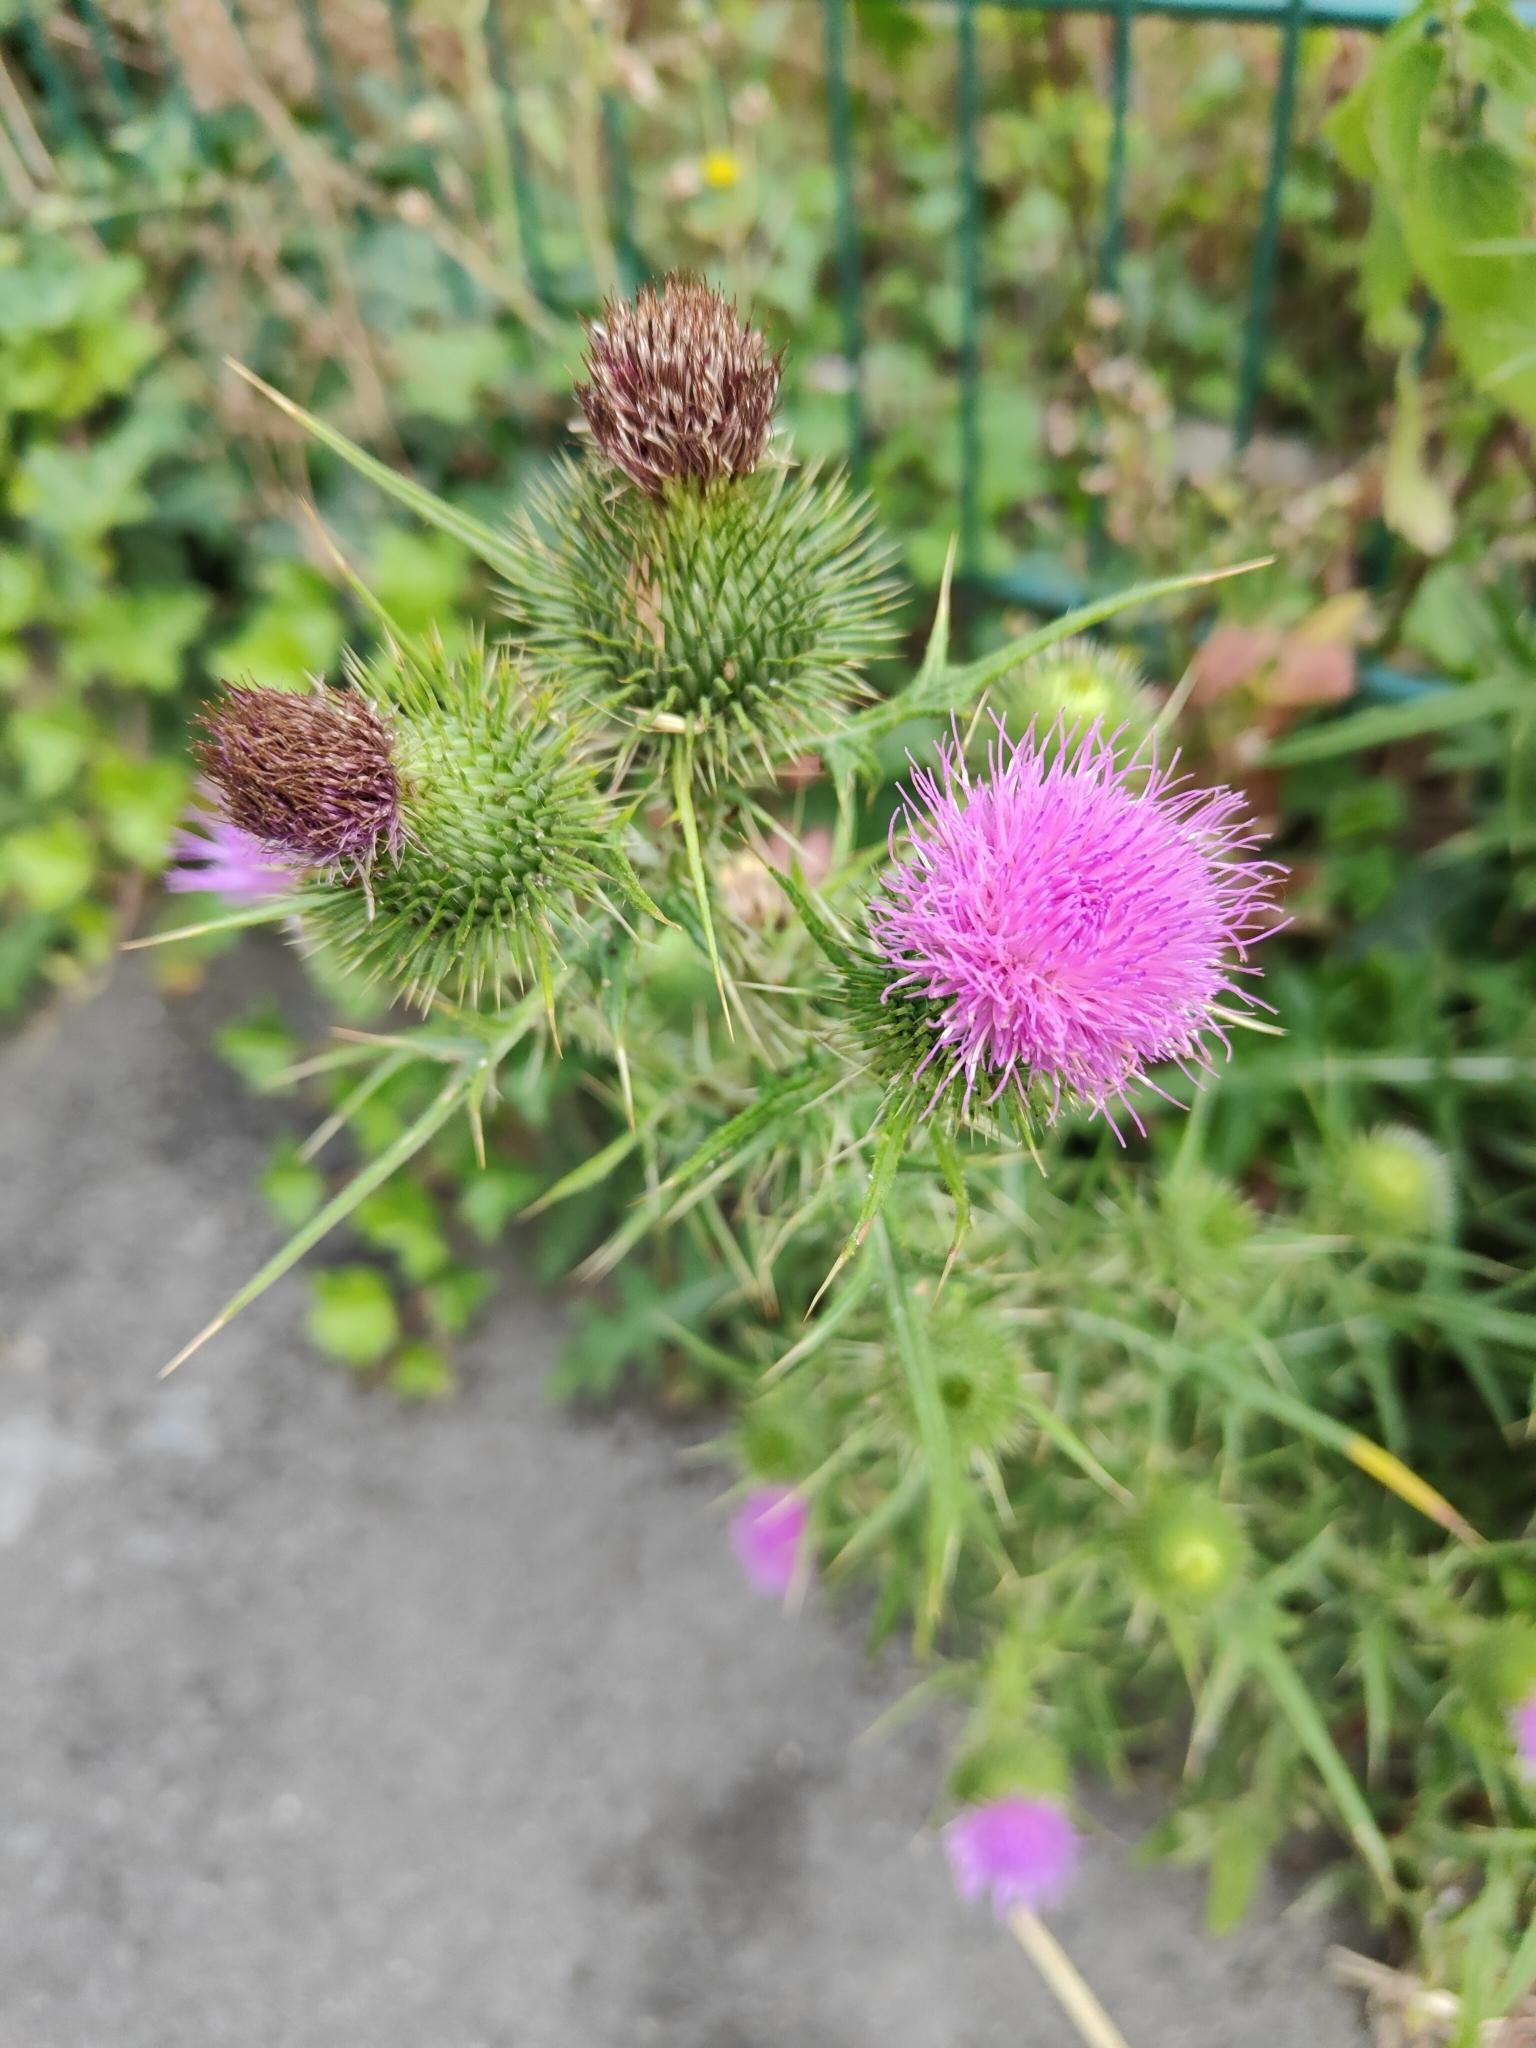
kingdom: Plantae
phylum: Tracheophyta
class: Magnoliopsida
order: Asterales
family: Asteraceae
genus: Cirsium
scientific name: Cirsium vulgare
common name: Bull thistle
